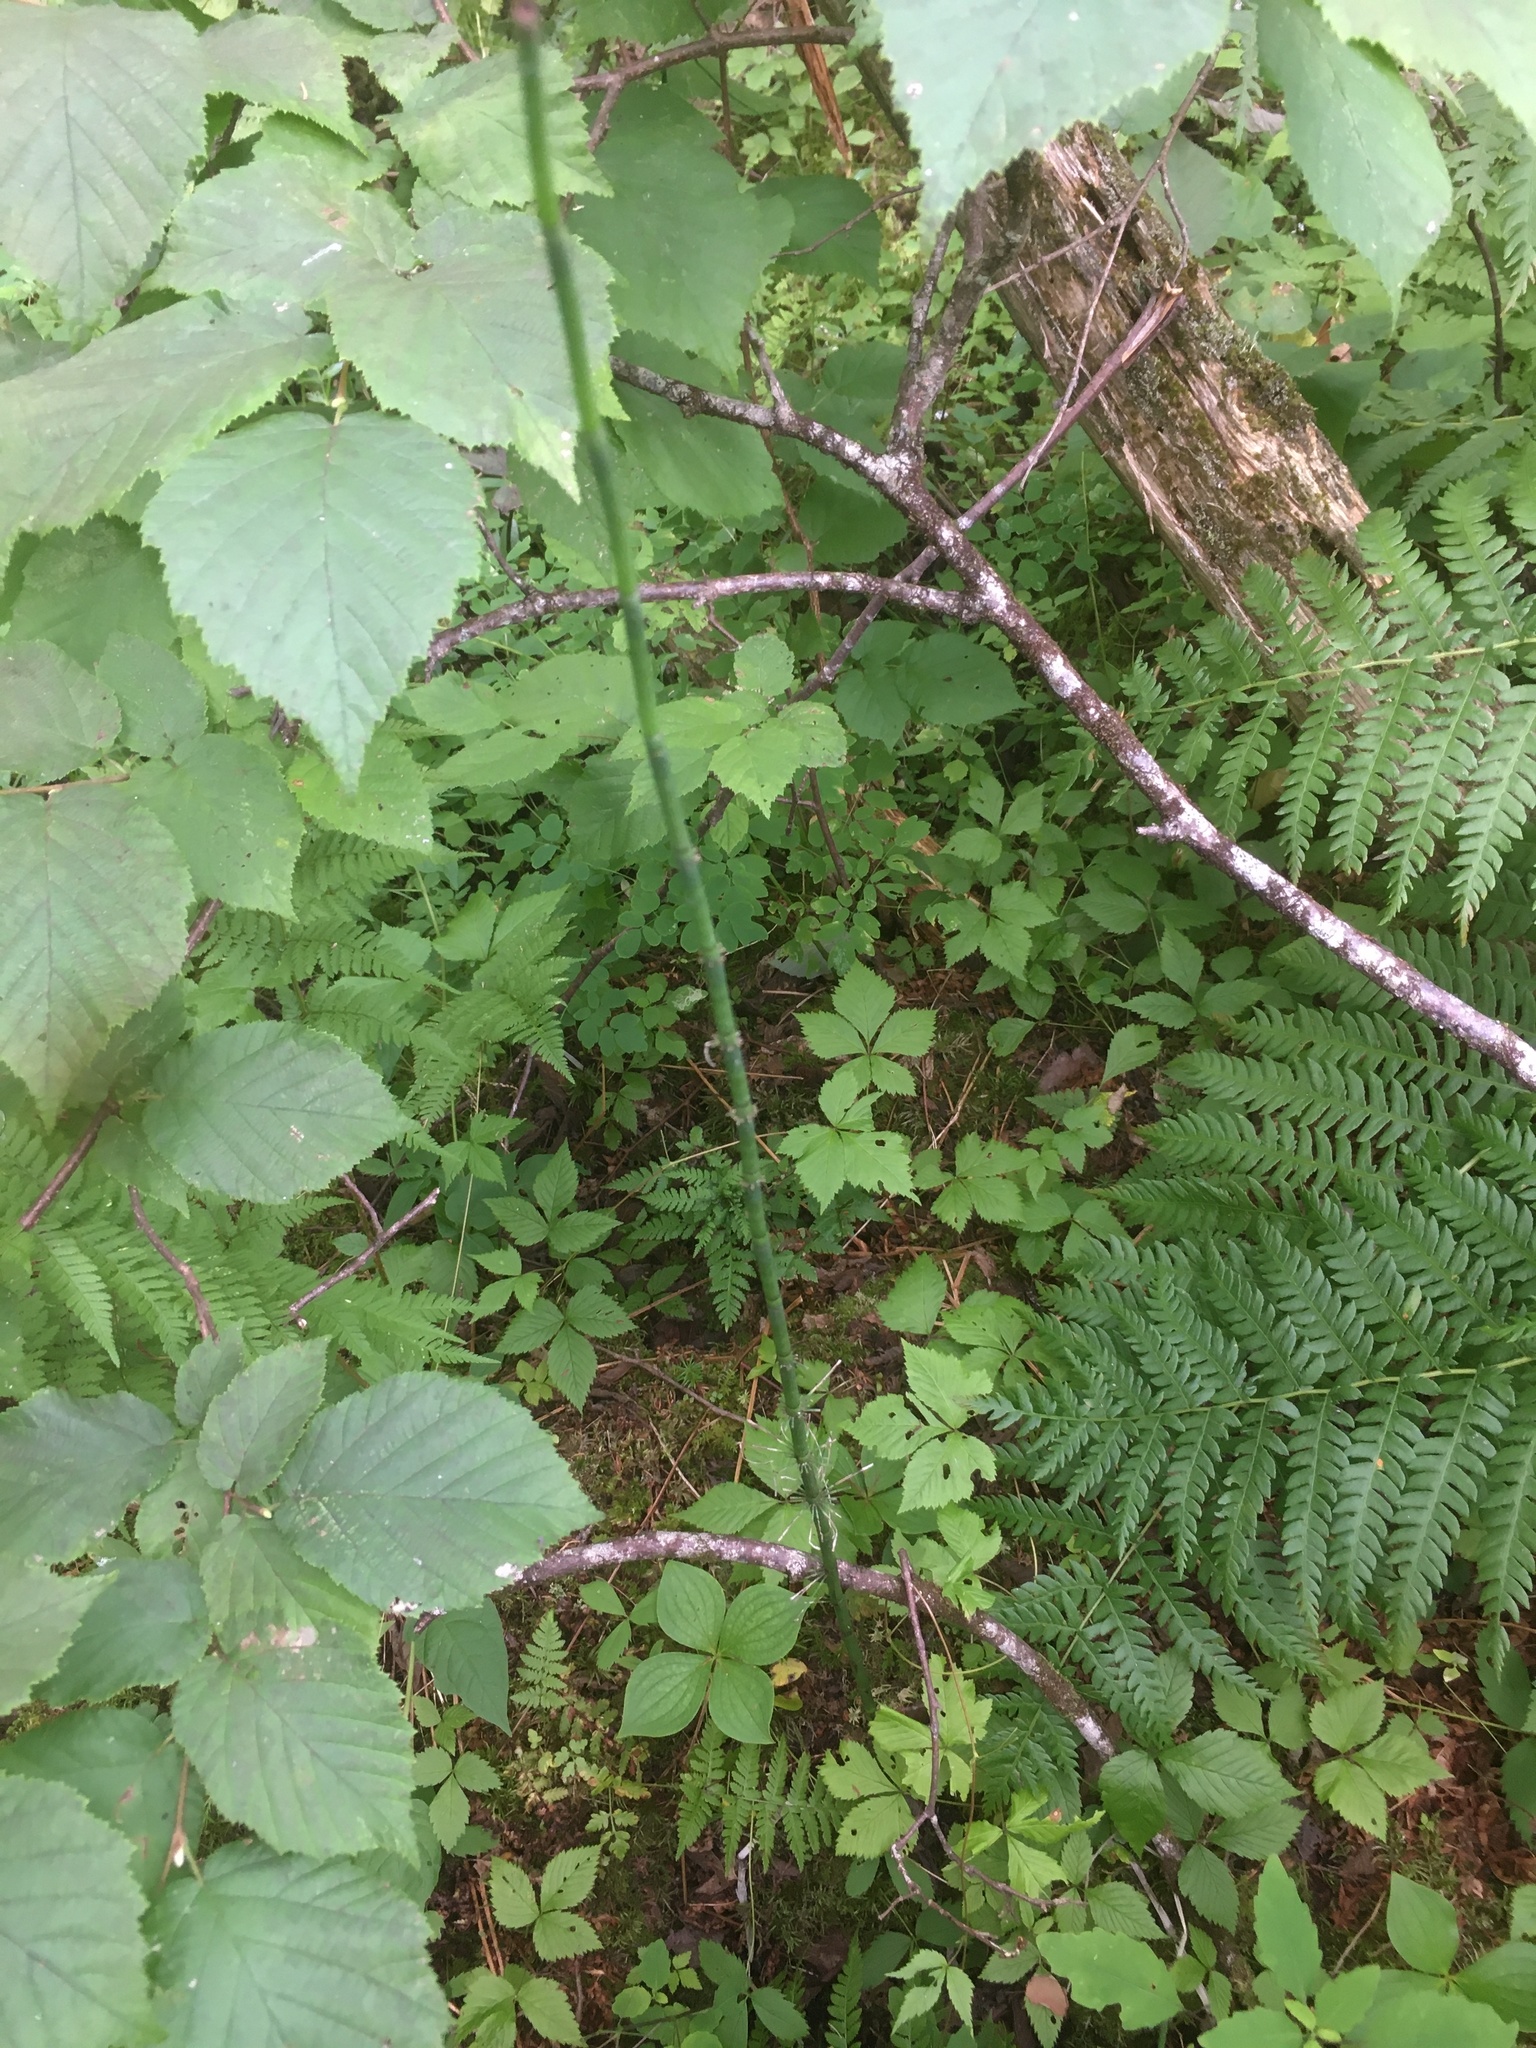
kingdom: Plantae
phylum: Tracheophyta
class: Polypodiopsida
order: Equisetales
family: Equisetaceae
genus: Equisetum
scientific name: Equisetum fluviatile
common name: Water horsetail
